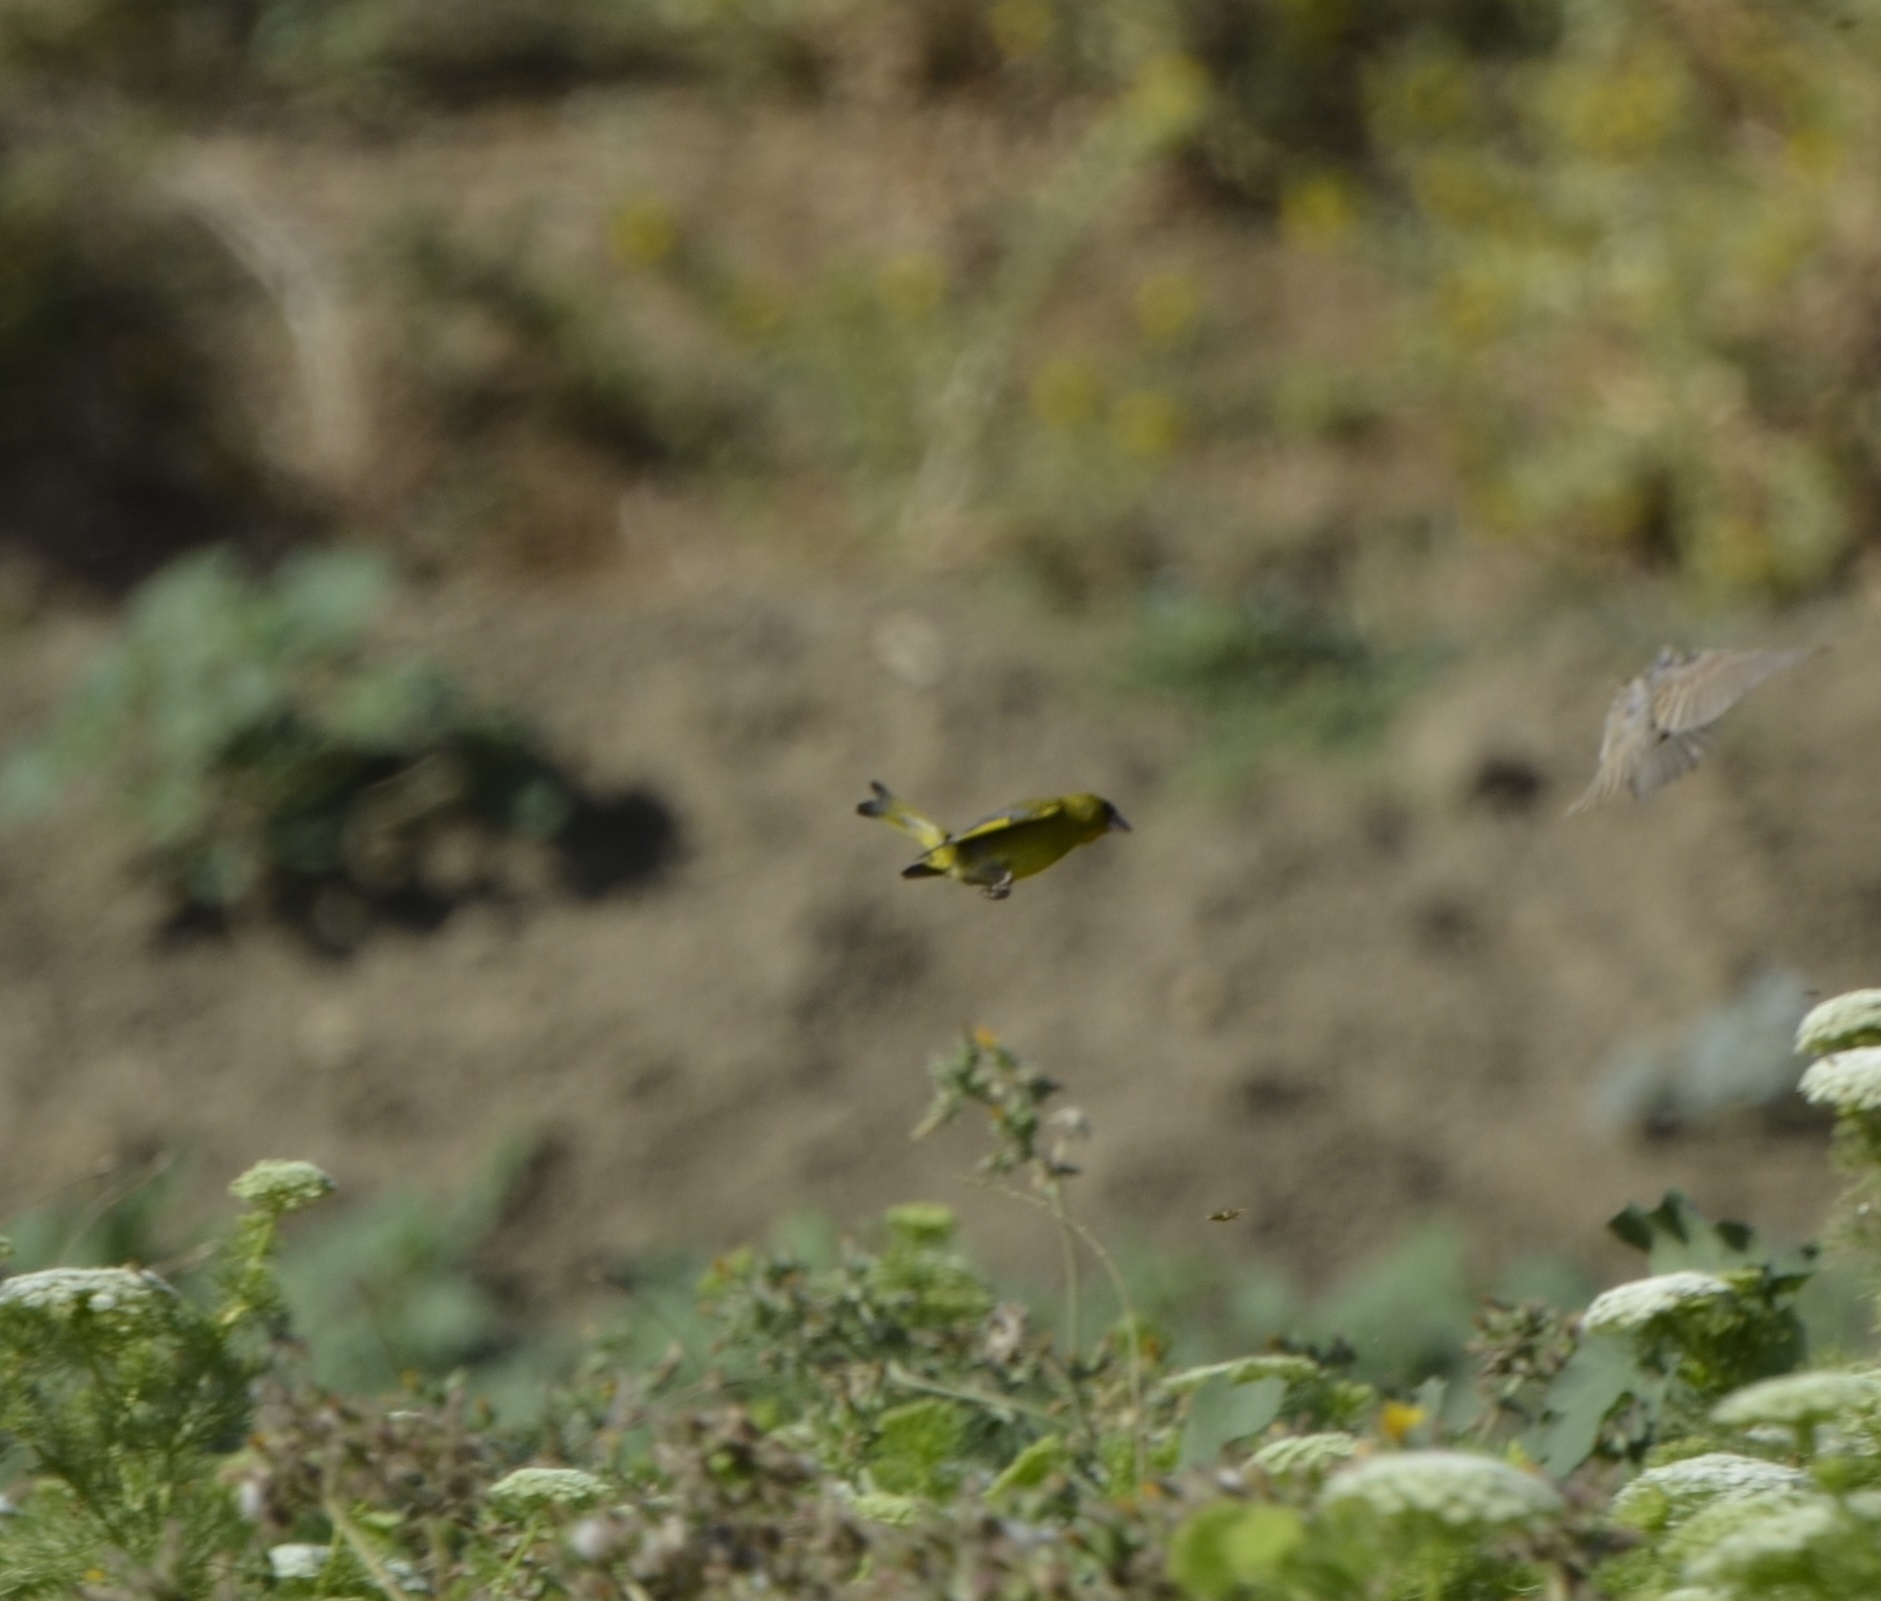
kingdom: Plantae
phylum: Tracheophyta
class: Liliopsida
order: Poales
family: Poaceae
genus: Chloris
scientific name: Chloris chloris
